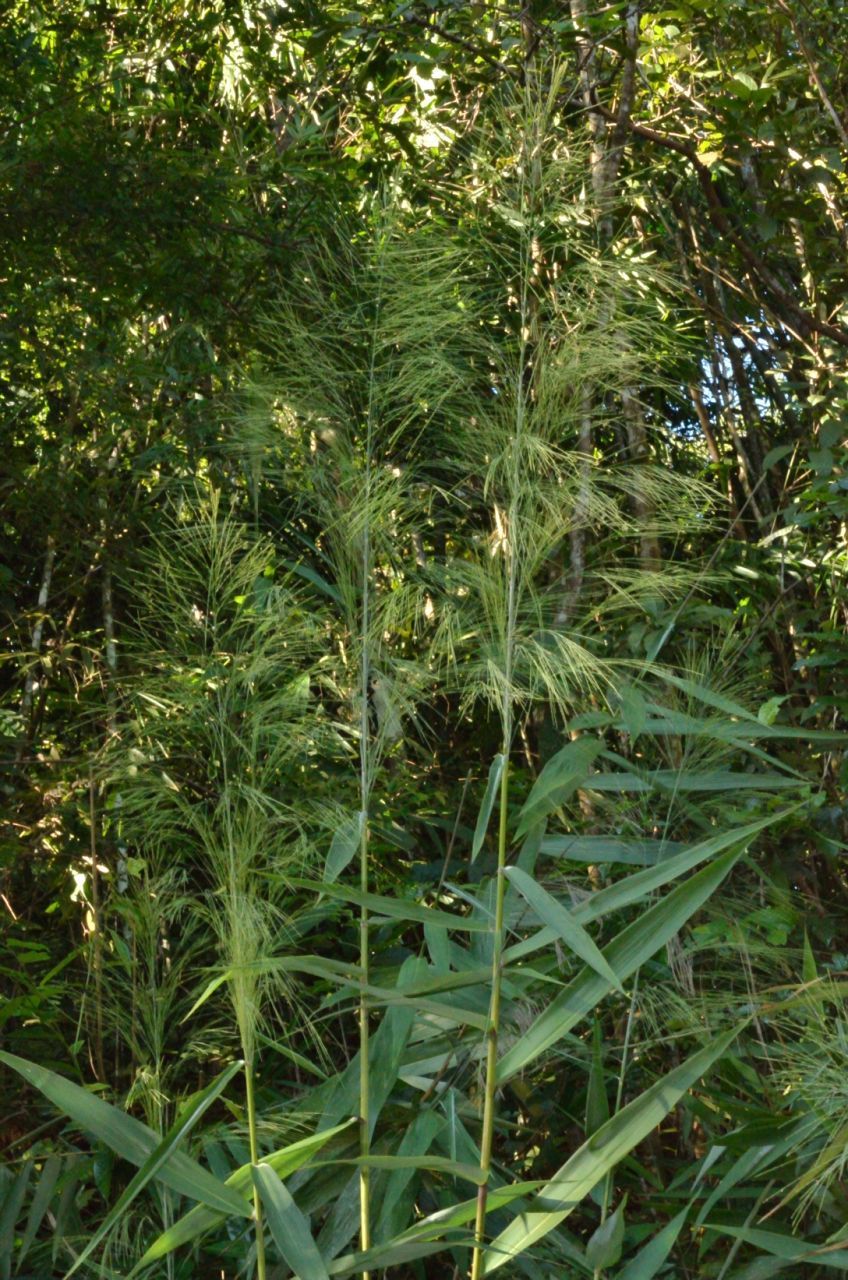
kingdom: Plantae
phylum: Tracheophyta
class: Liliopsida
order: Poales
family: Poaceae
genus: Thysanolaena
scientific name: Thysanolaena latifolia
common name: Tiger grass
